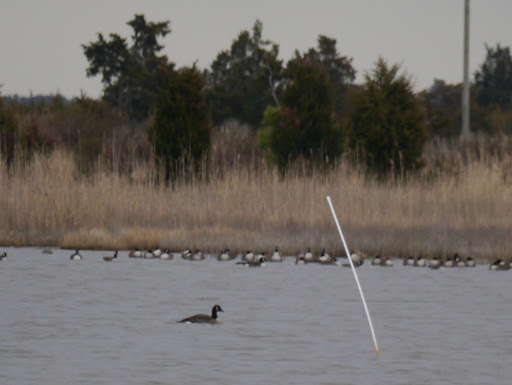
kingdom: Animalia
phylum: Chordata
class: Aves
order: Anseriformes
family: Anatidae
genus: Branta
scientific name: Branta canadensis
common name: Canada goose
